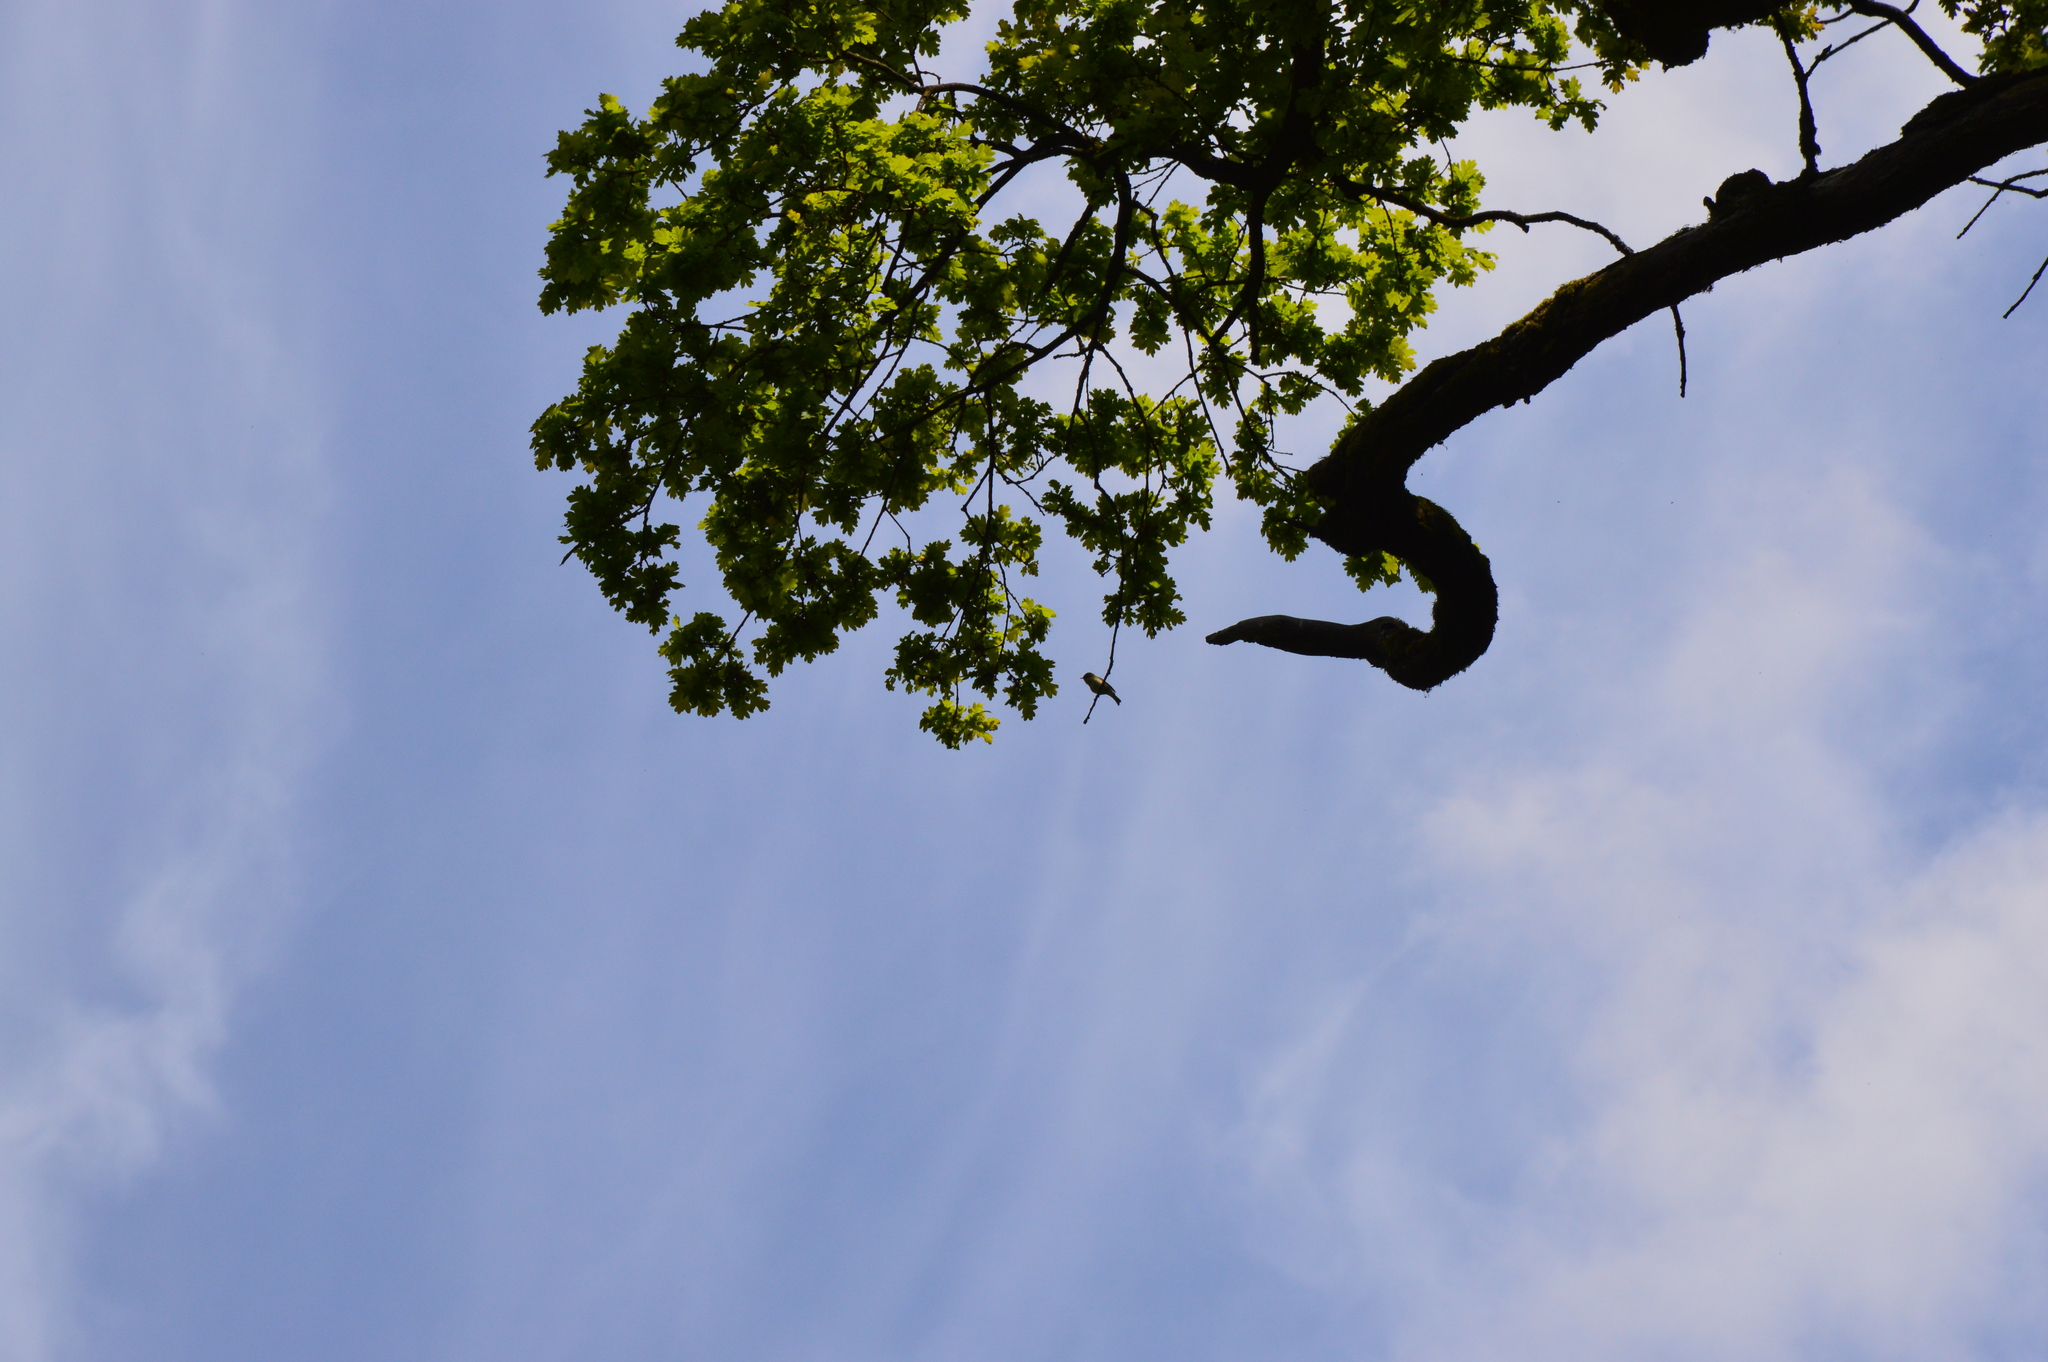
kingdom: Animalia
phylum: Chordata
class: Aves
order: Passeriformes
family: Phylloscopidae
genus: Phylloscopus
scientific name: Phylloscopus collybita
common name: Common chiffchaff
